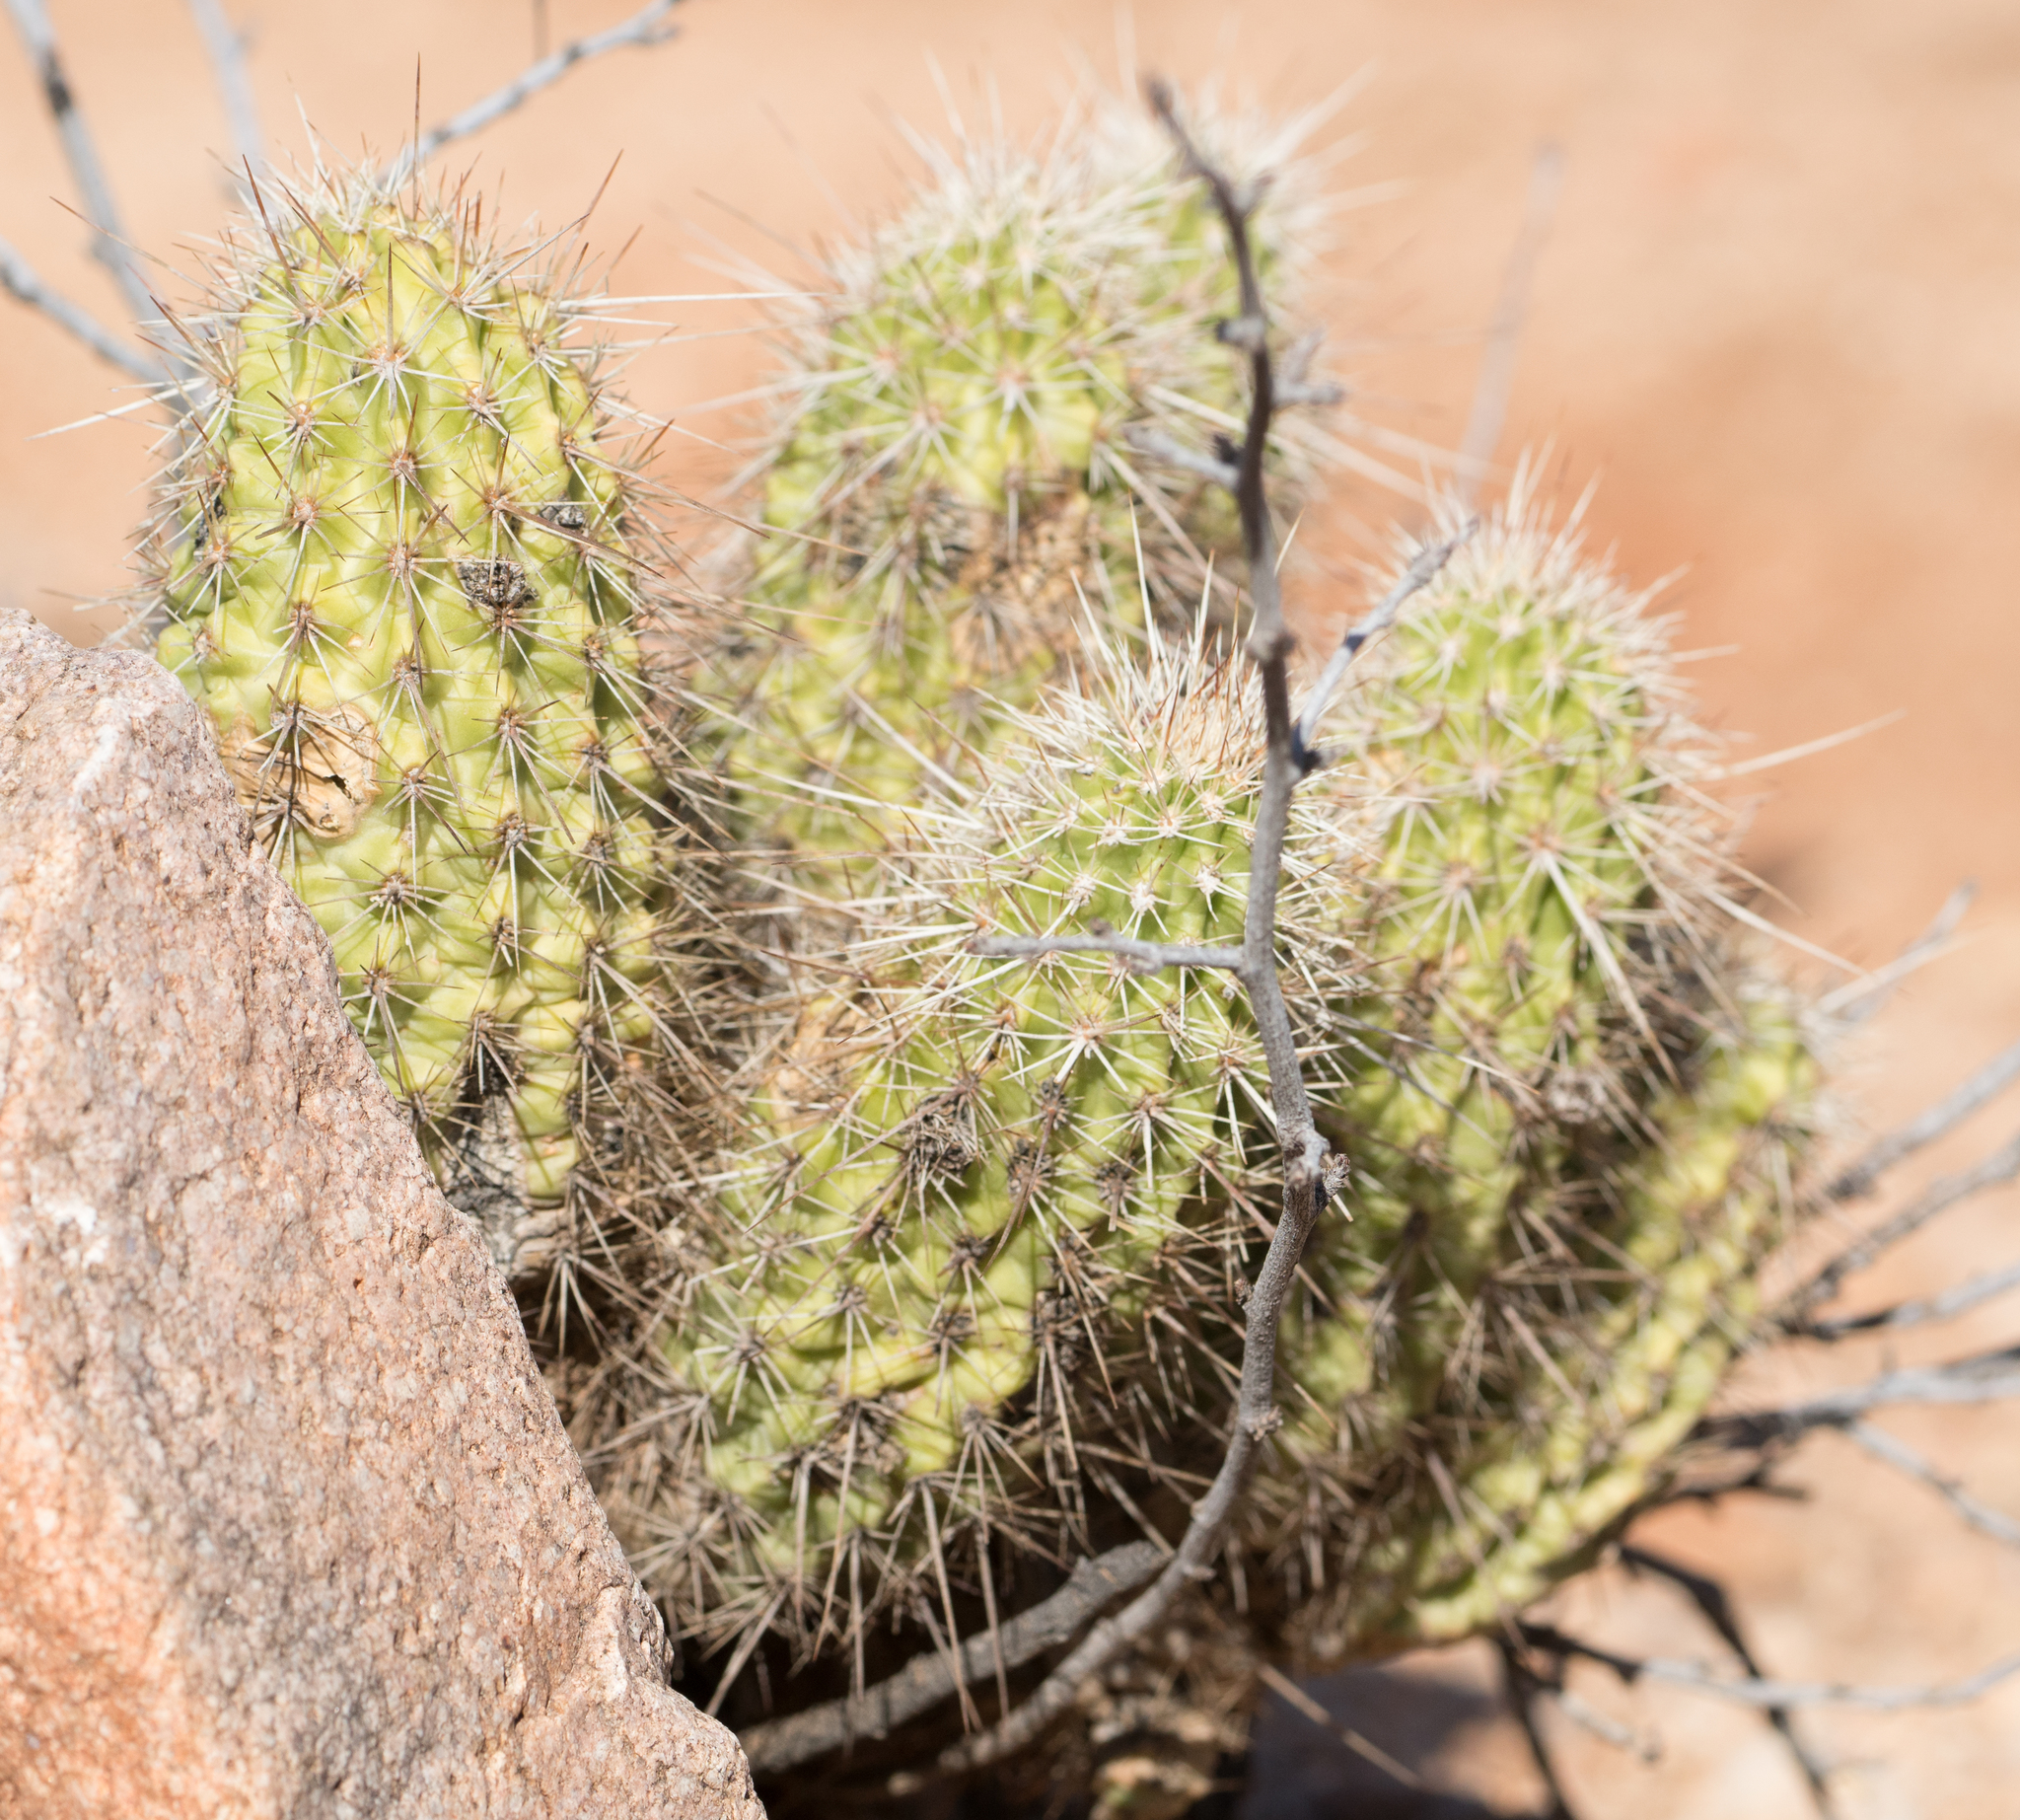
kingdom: Plantae
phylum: Tracheophyta
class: Magnoliopsida
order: Caryophyllales
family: Cactaceae
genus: Echinocereus
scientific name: Echinocereus fasciculatus
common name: Bundle hedgehog
